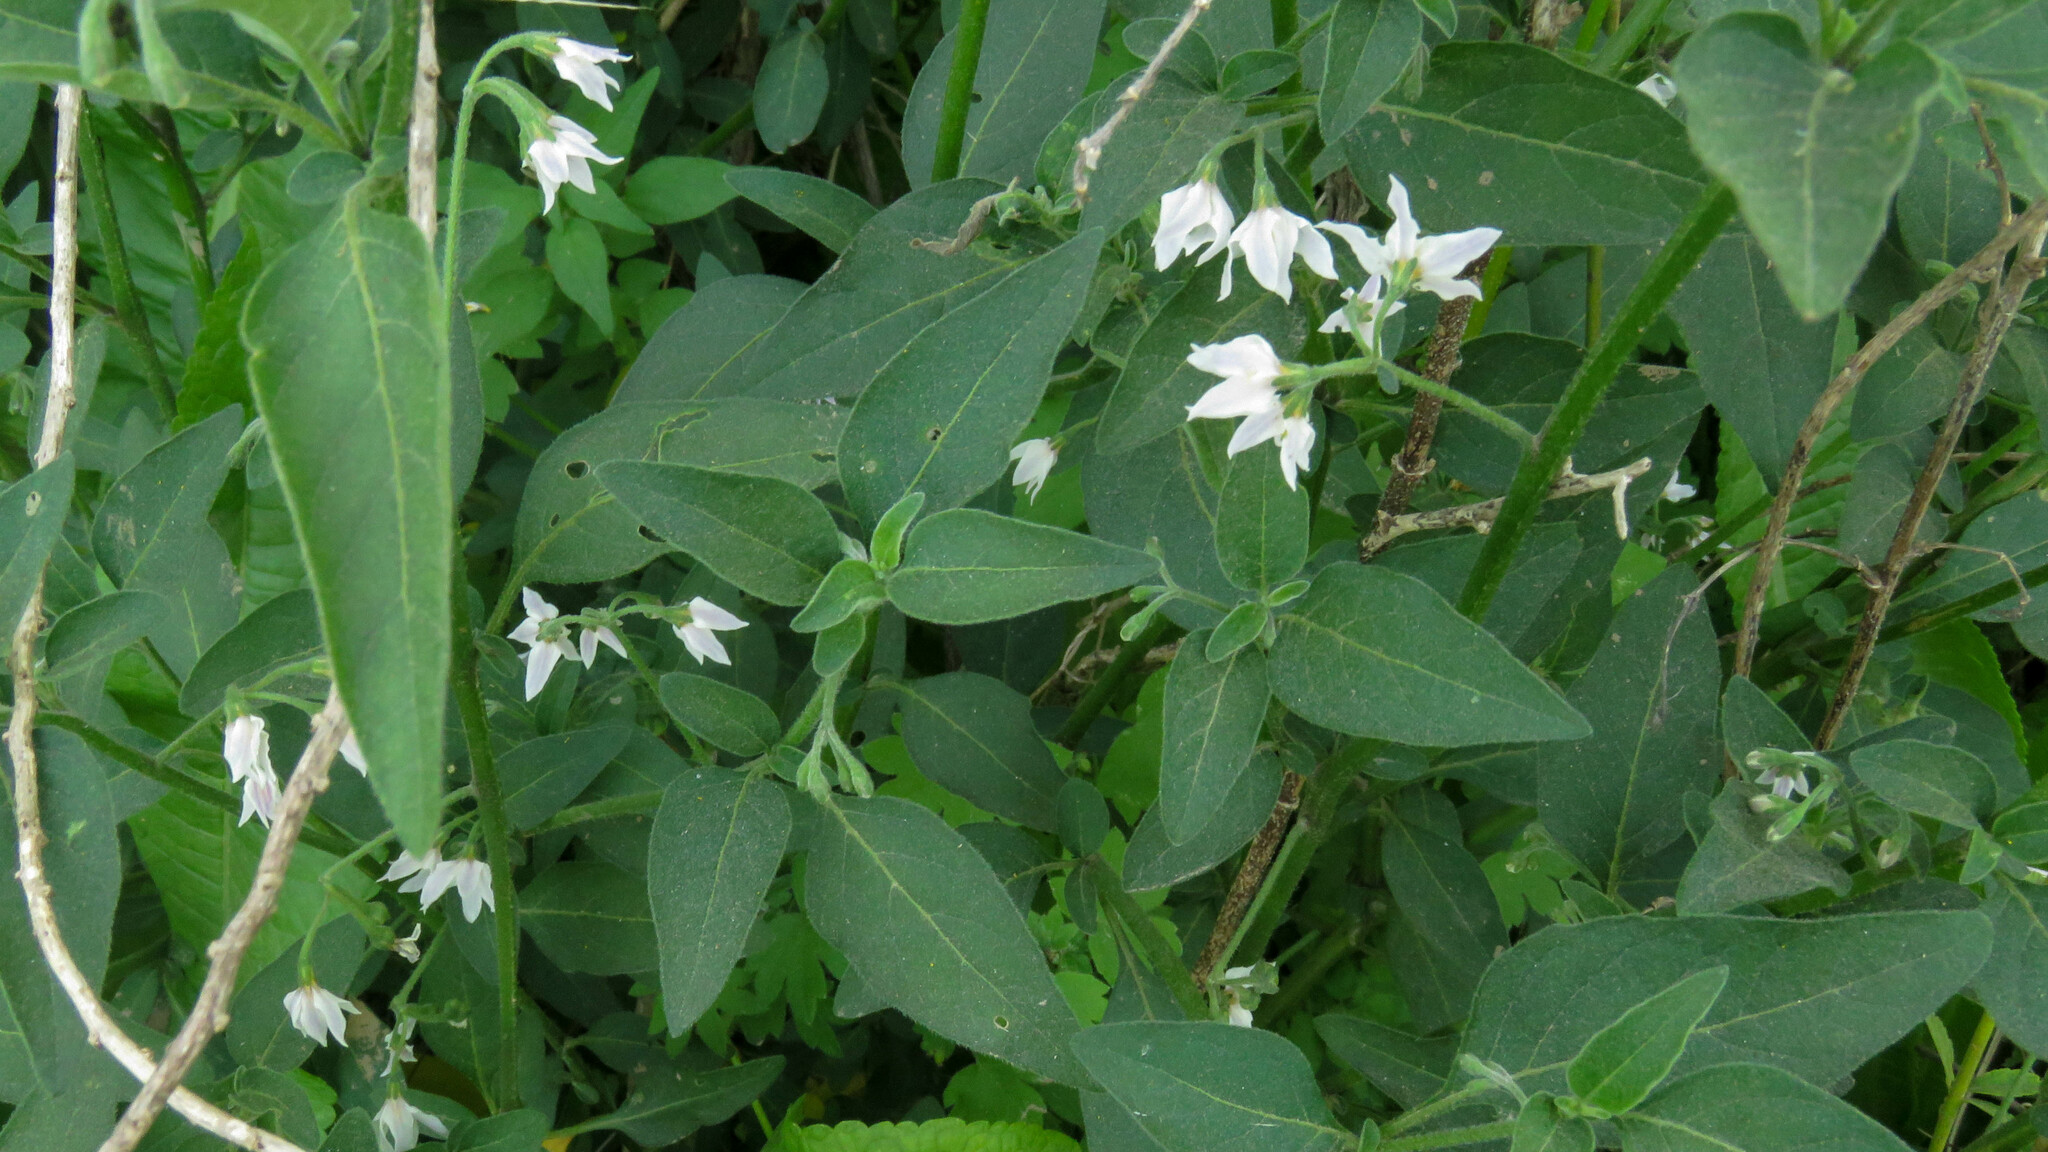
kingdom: Plantae
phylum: Tracheophyta
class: Magnoliopsida
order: Solanales
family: Solanaceae
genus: Solanum
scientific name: Solanum chenopodioides
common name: Tall nightshade
